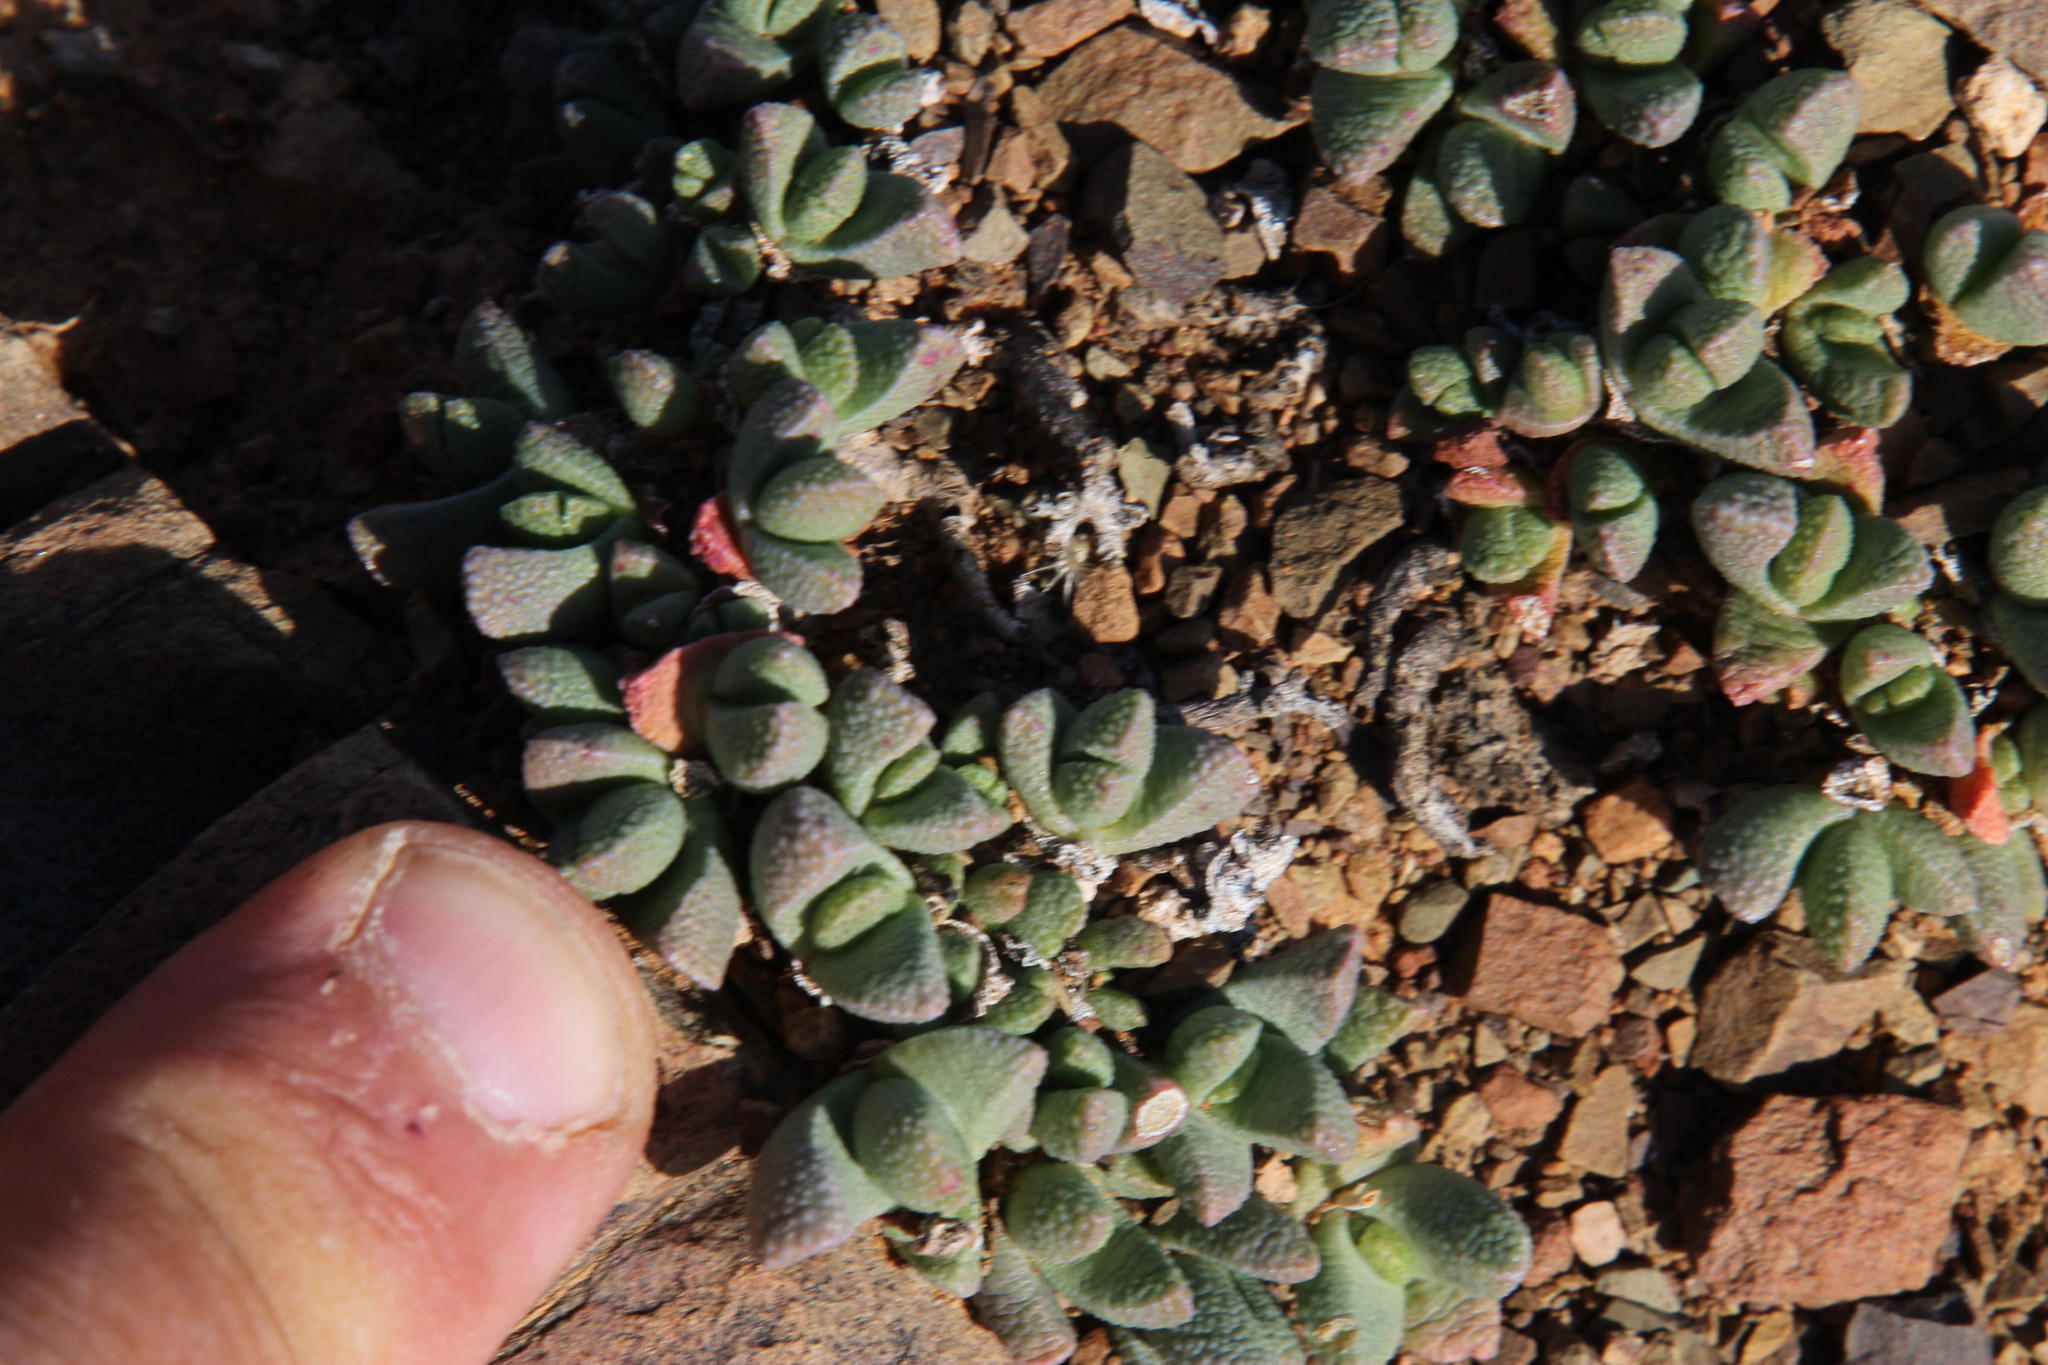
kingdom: Plantae
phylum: Tracheophyta
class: Magnoliopsida
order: Caryophyllales
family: Aizoaceae
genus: Rhinephyllum
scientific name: Rhinephyllum parvifolium
